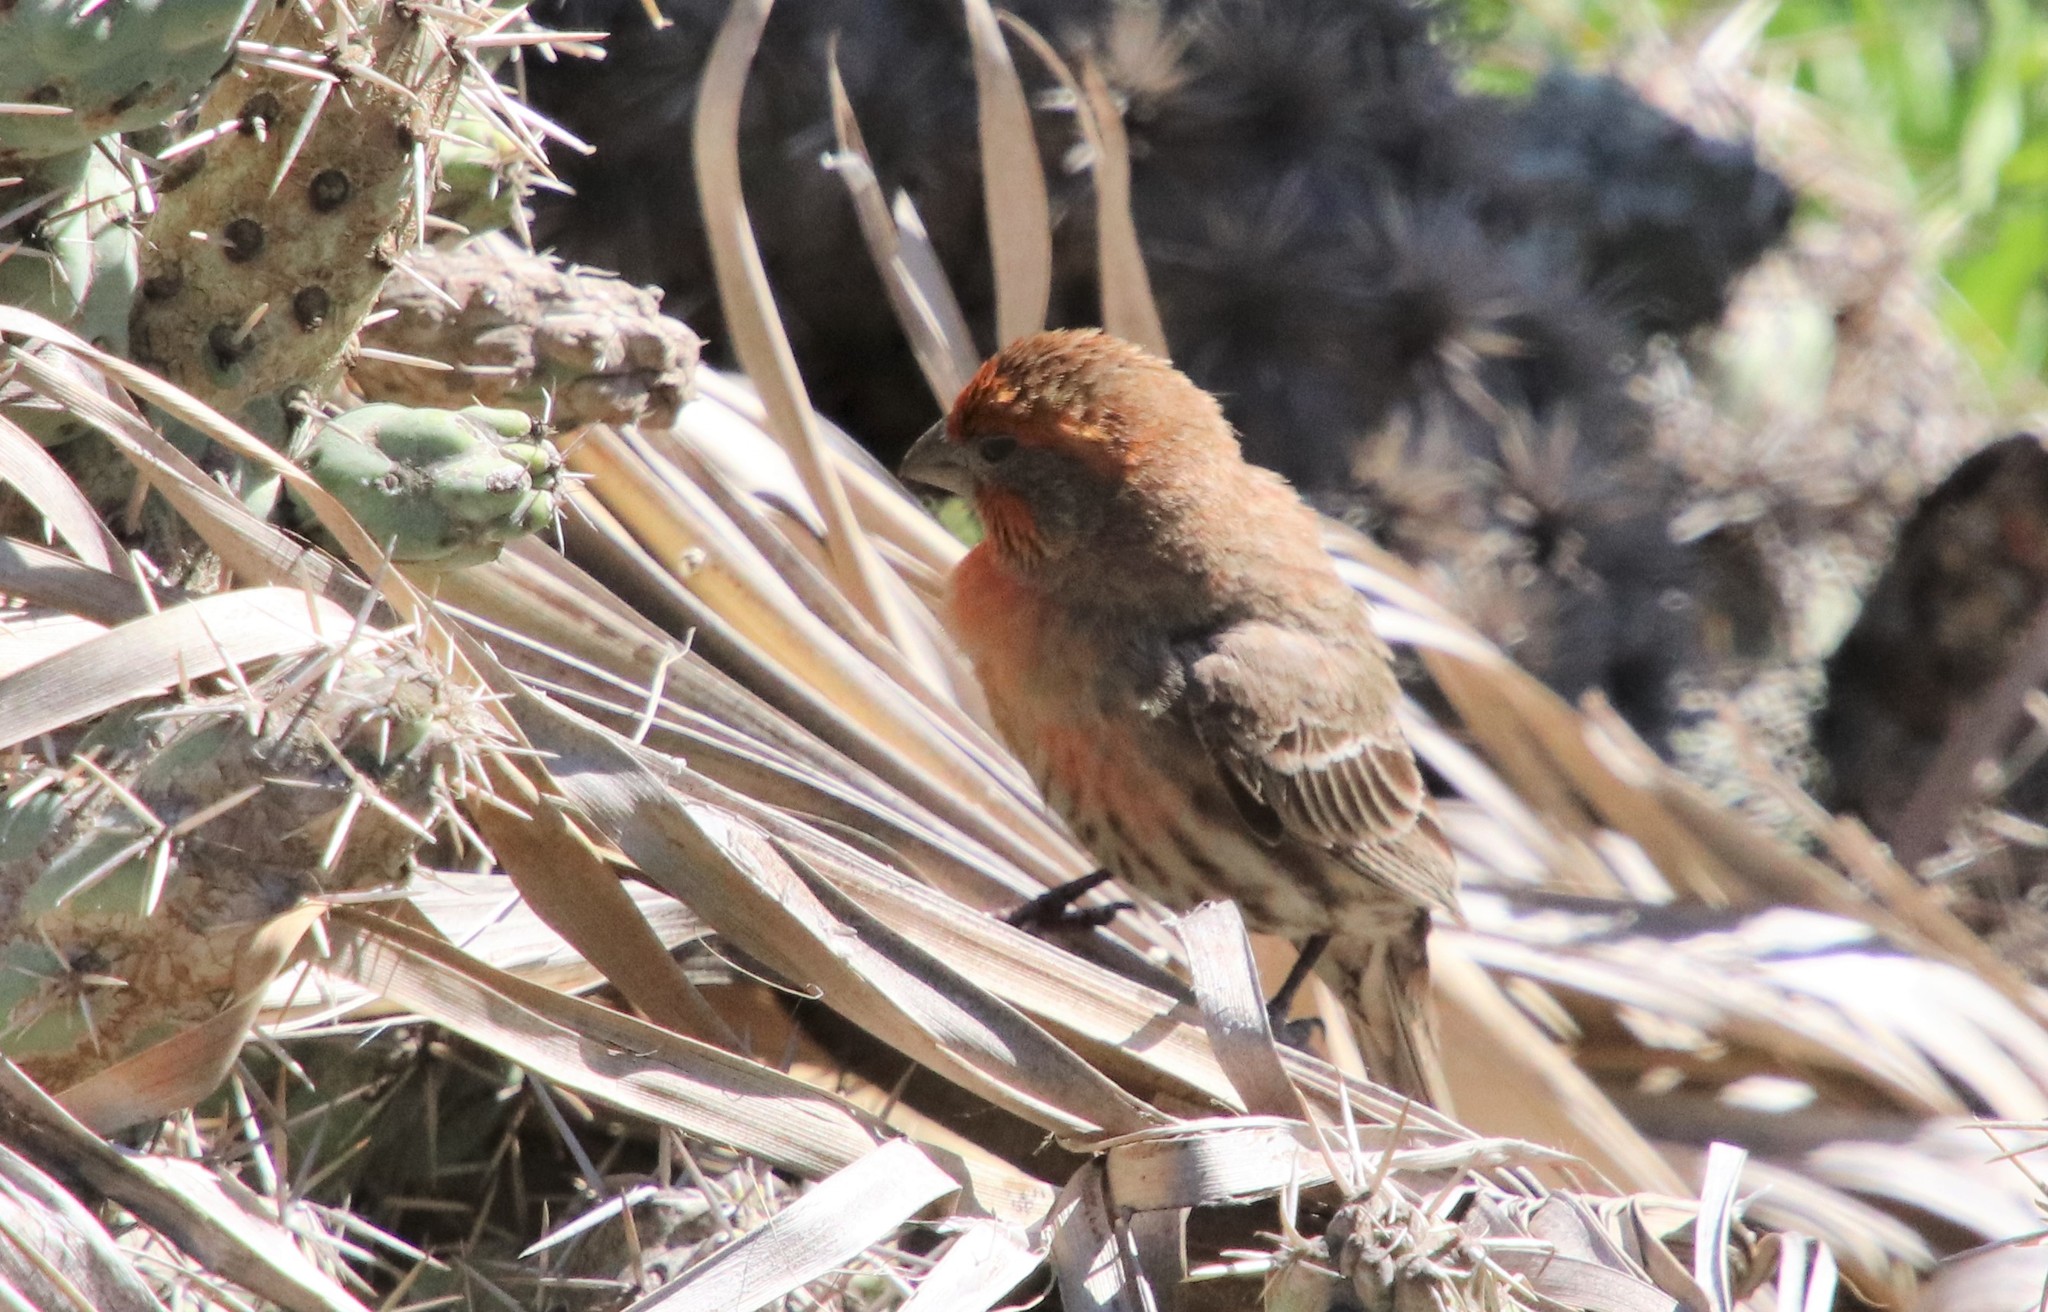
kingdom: Animalia
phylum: Chordata
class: Aves
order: Passeriformes
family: Fringillidae
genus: Haemorhous
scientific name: Haemorhous mexicanus
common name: House finch
